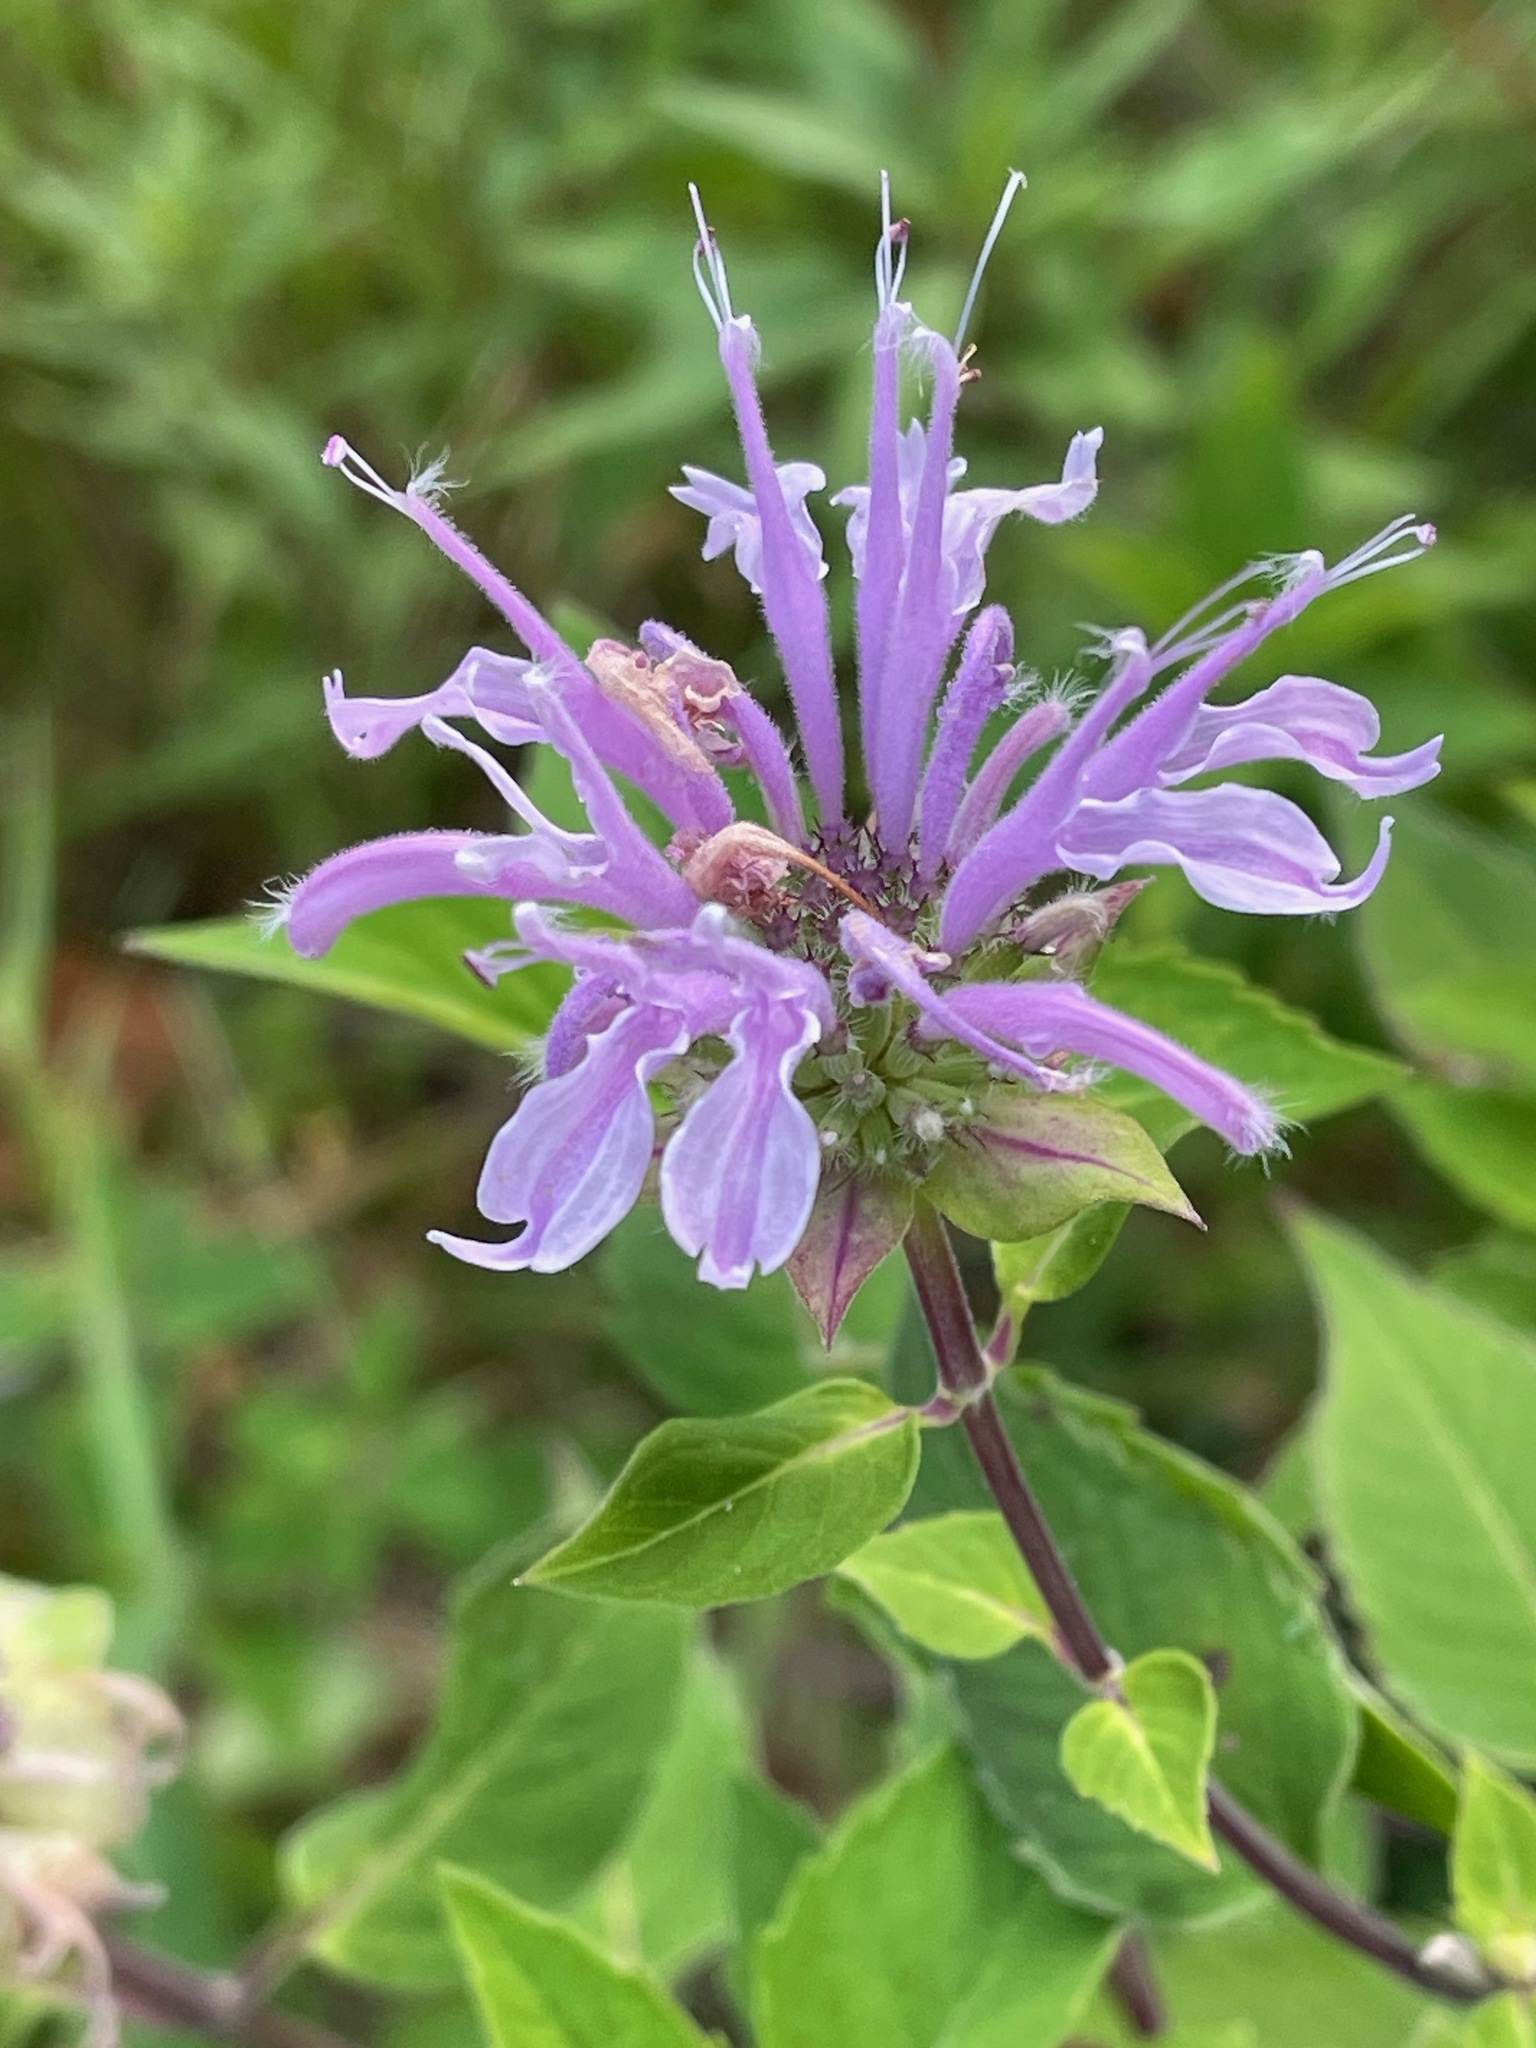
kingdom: Plantae
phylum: Tracheophyta
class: Magnoliopsida
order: Lamiales
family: Lamiaceae
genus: Monarda
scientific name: Monarda fistulosa
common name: Purple beebalm
